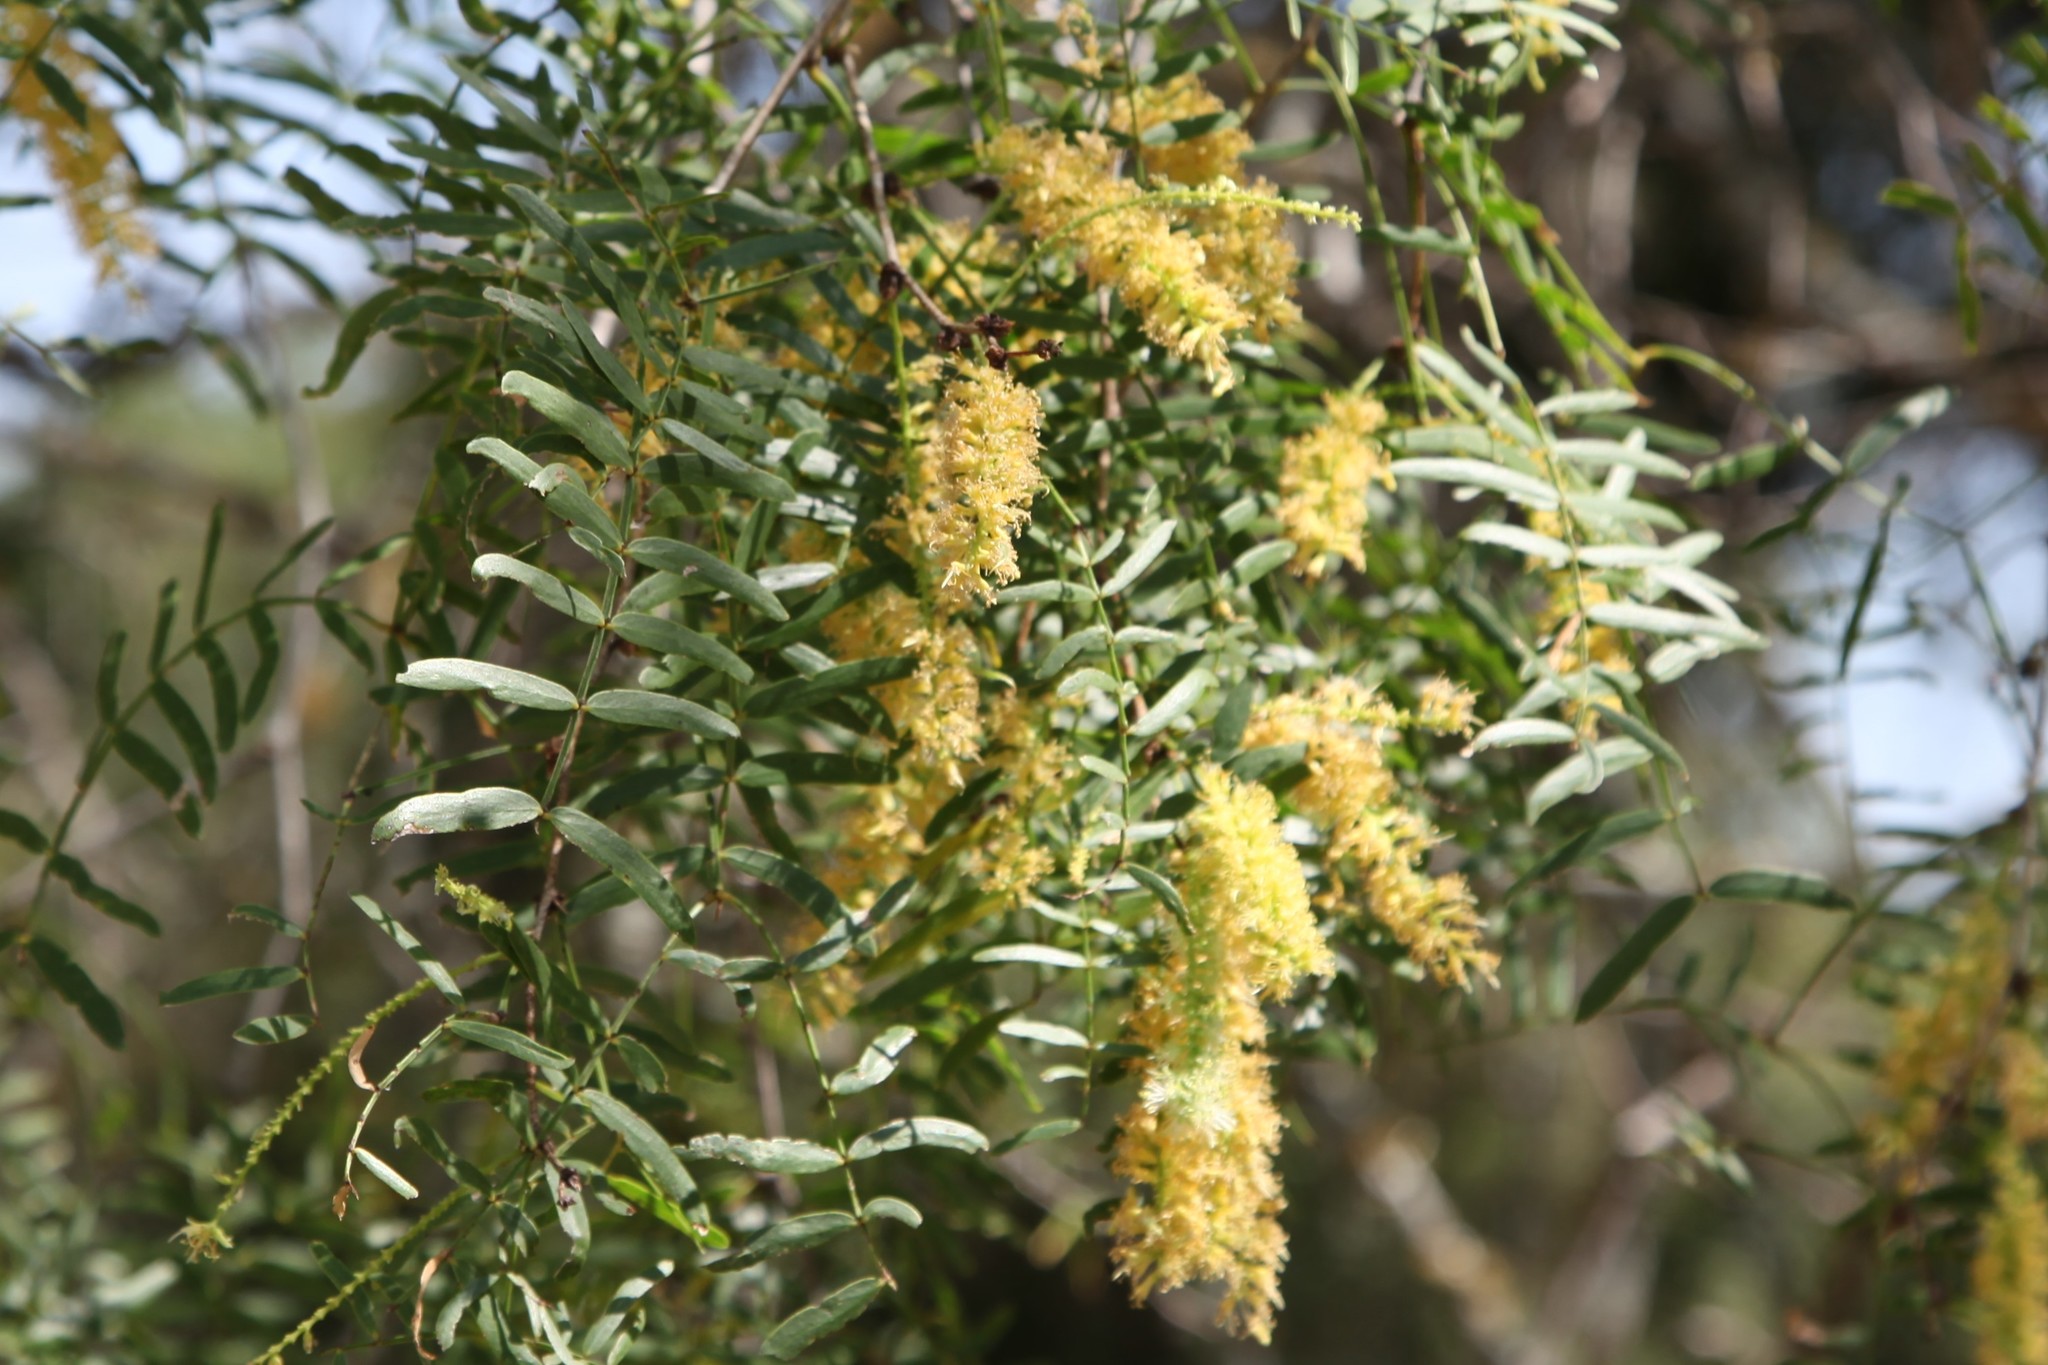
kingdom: Plantae
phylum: Tracheophyta
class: Magnoliopsida
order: Fabales
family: Fabaceae
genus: Prosopis
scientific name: Prosopis glandulosa
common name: Honey mesquite
